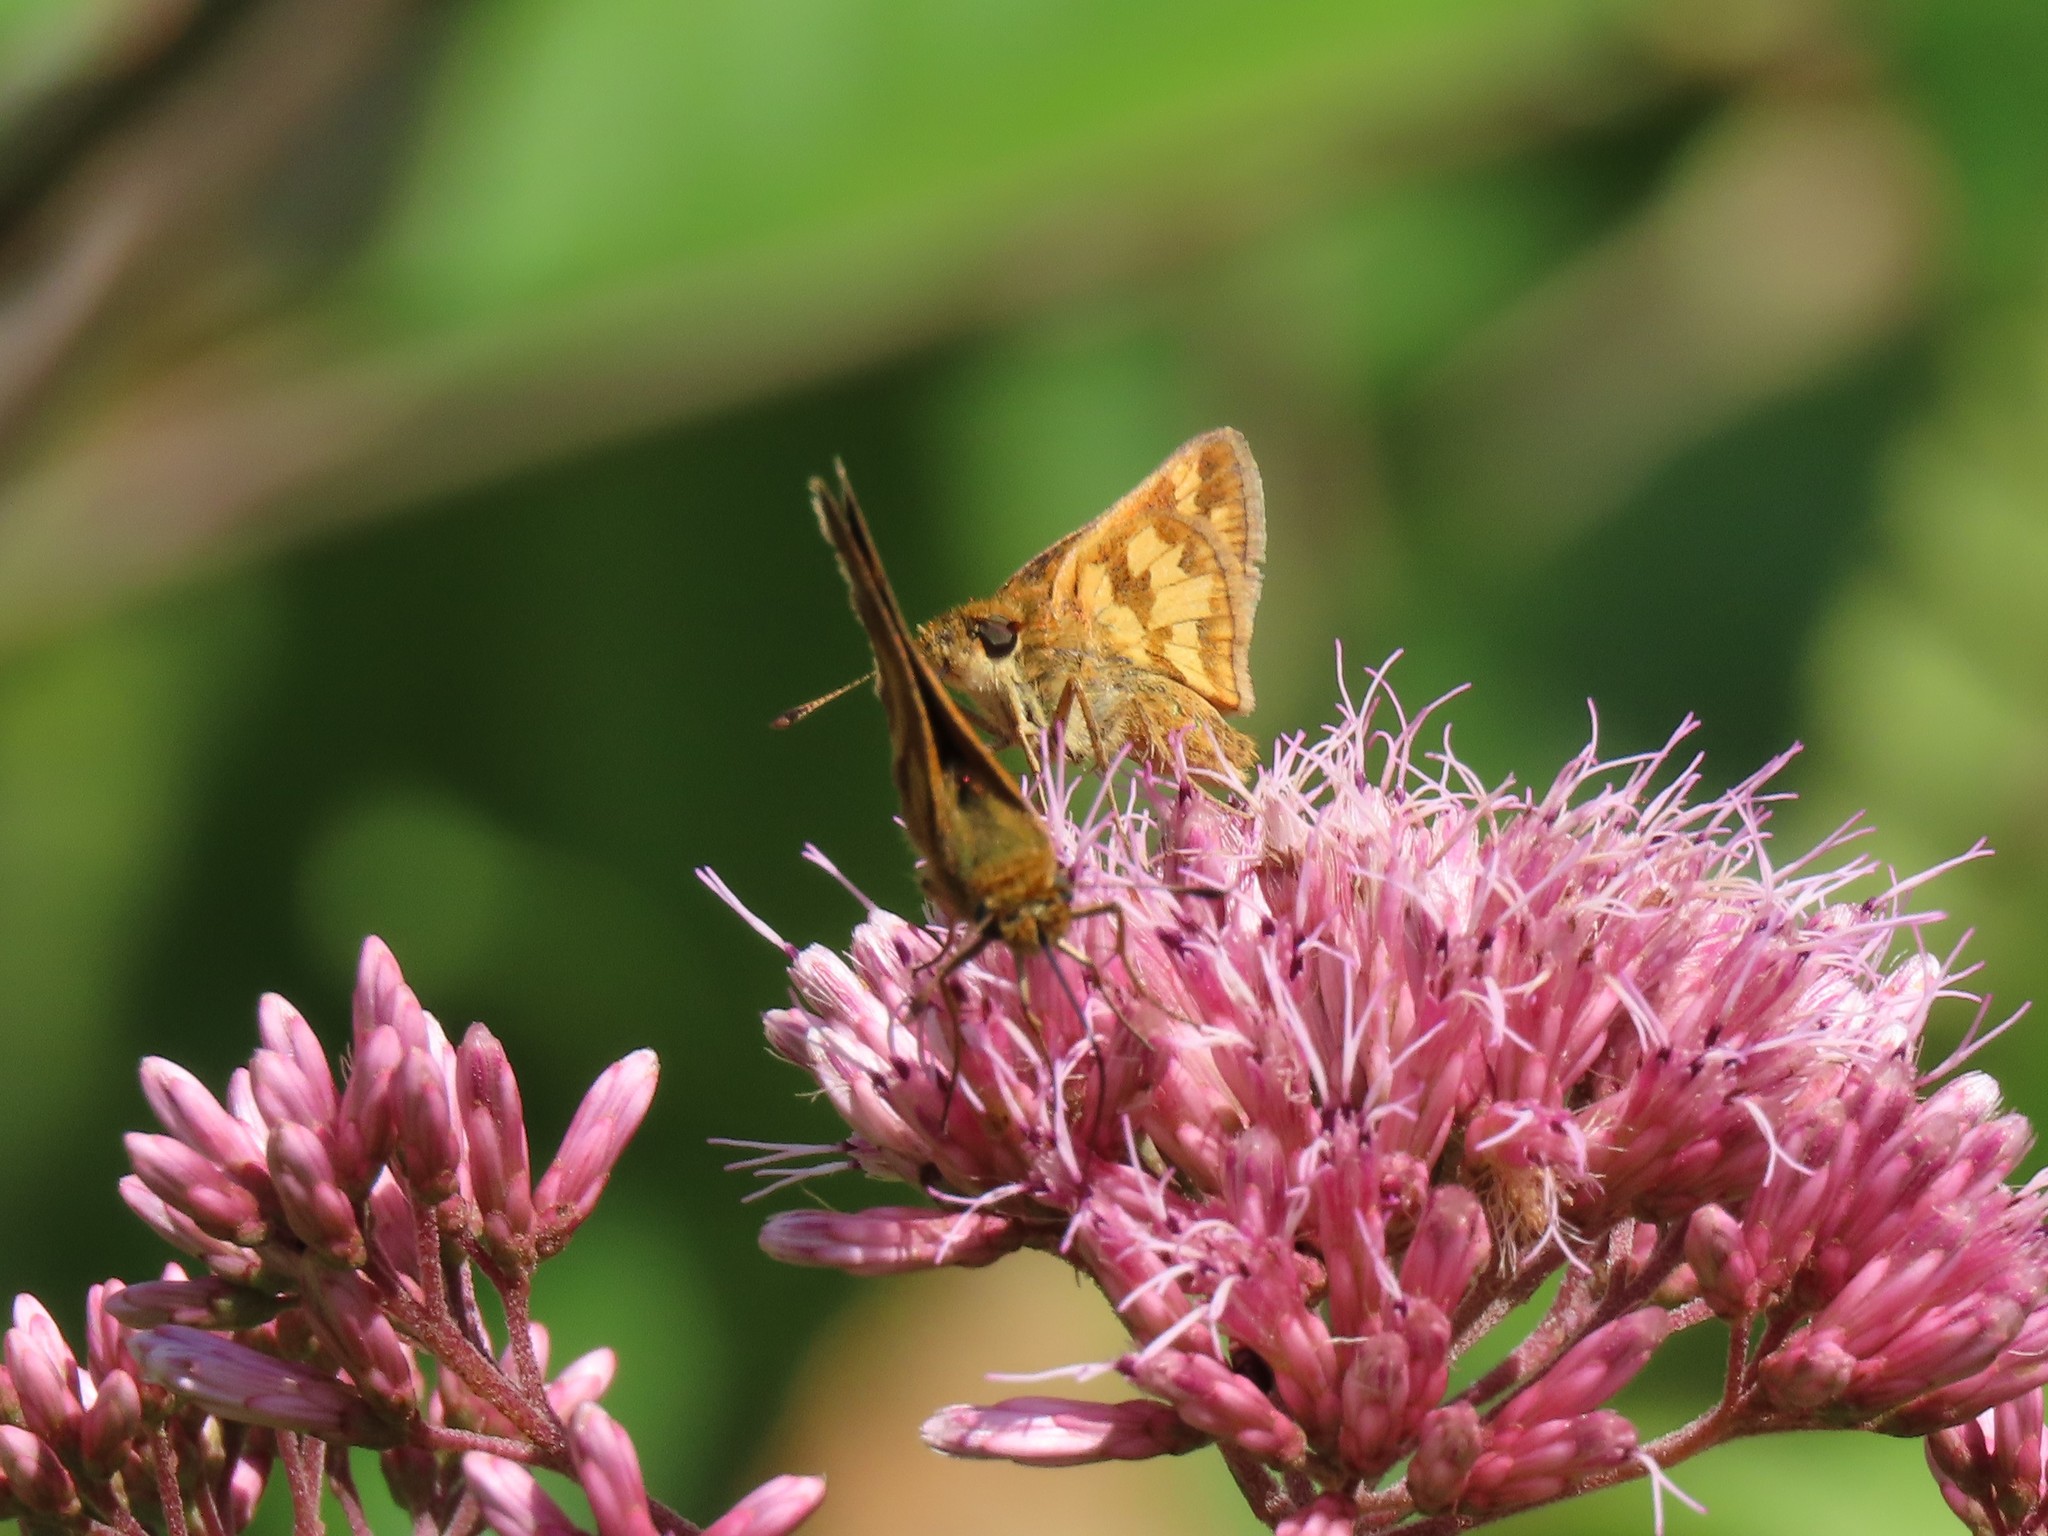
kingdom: Animalia
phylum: Arthropoda
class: Insecta
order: Lepidoptera
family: Hesperiidae
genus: Polites
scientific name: Polites coras
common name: Peck's skipper
